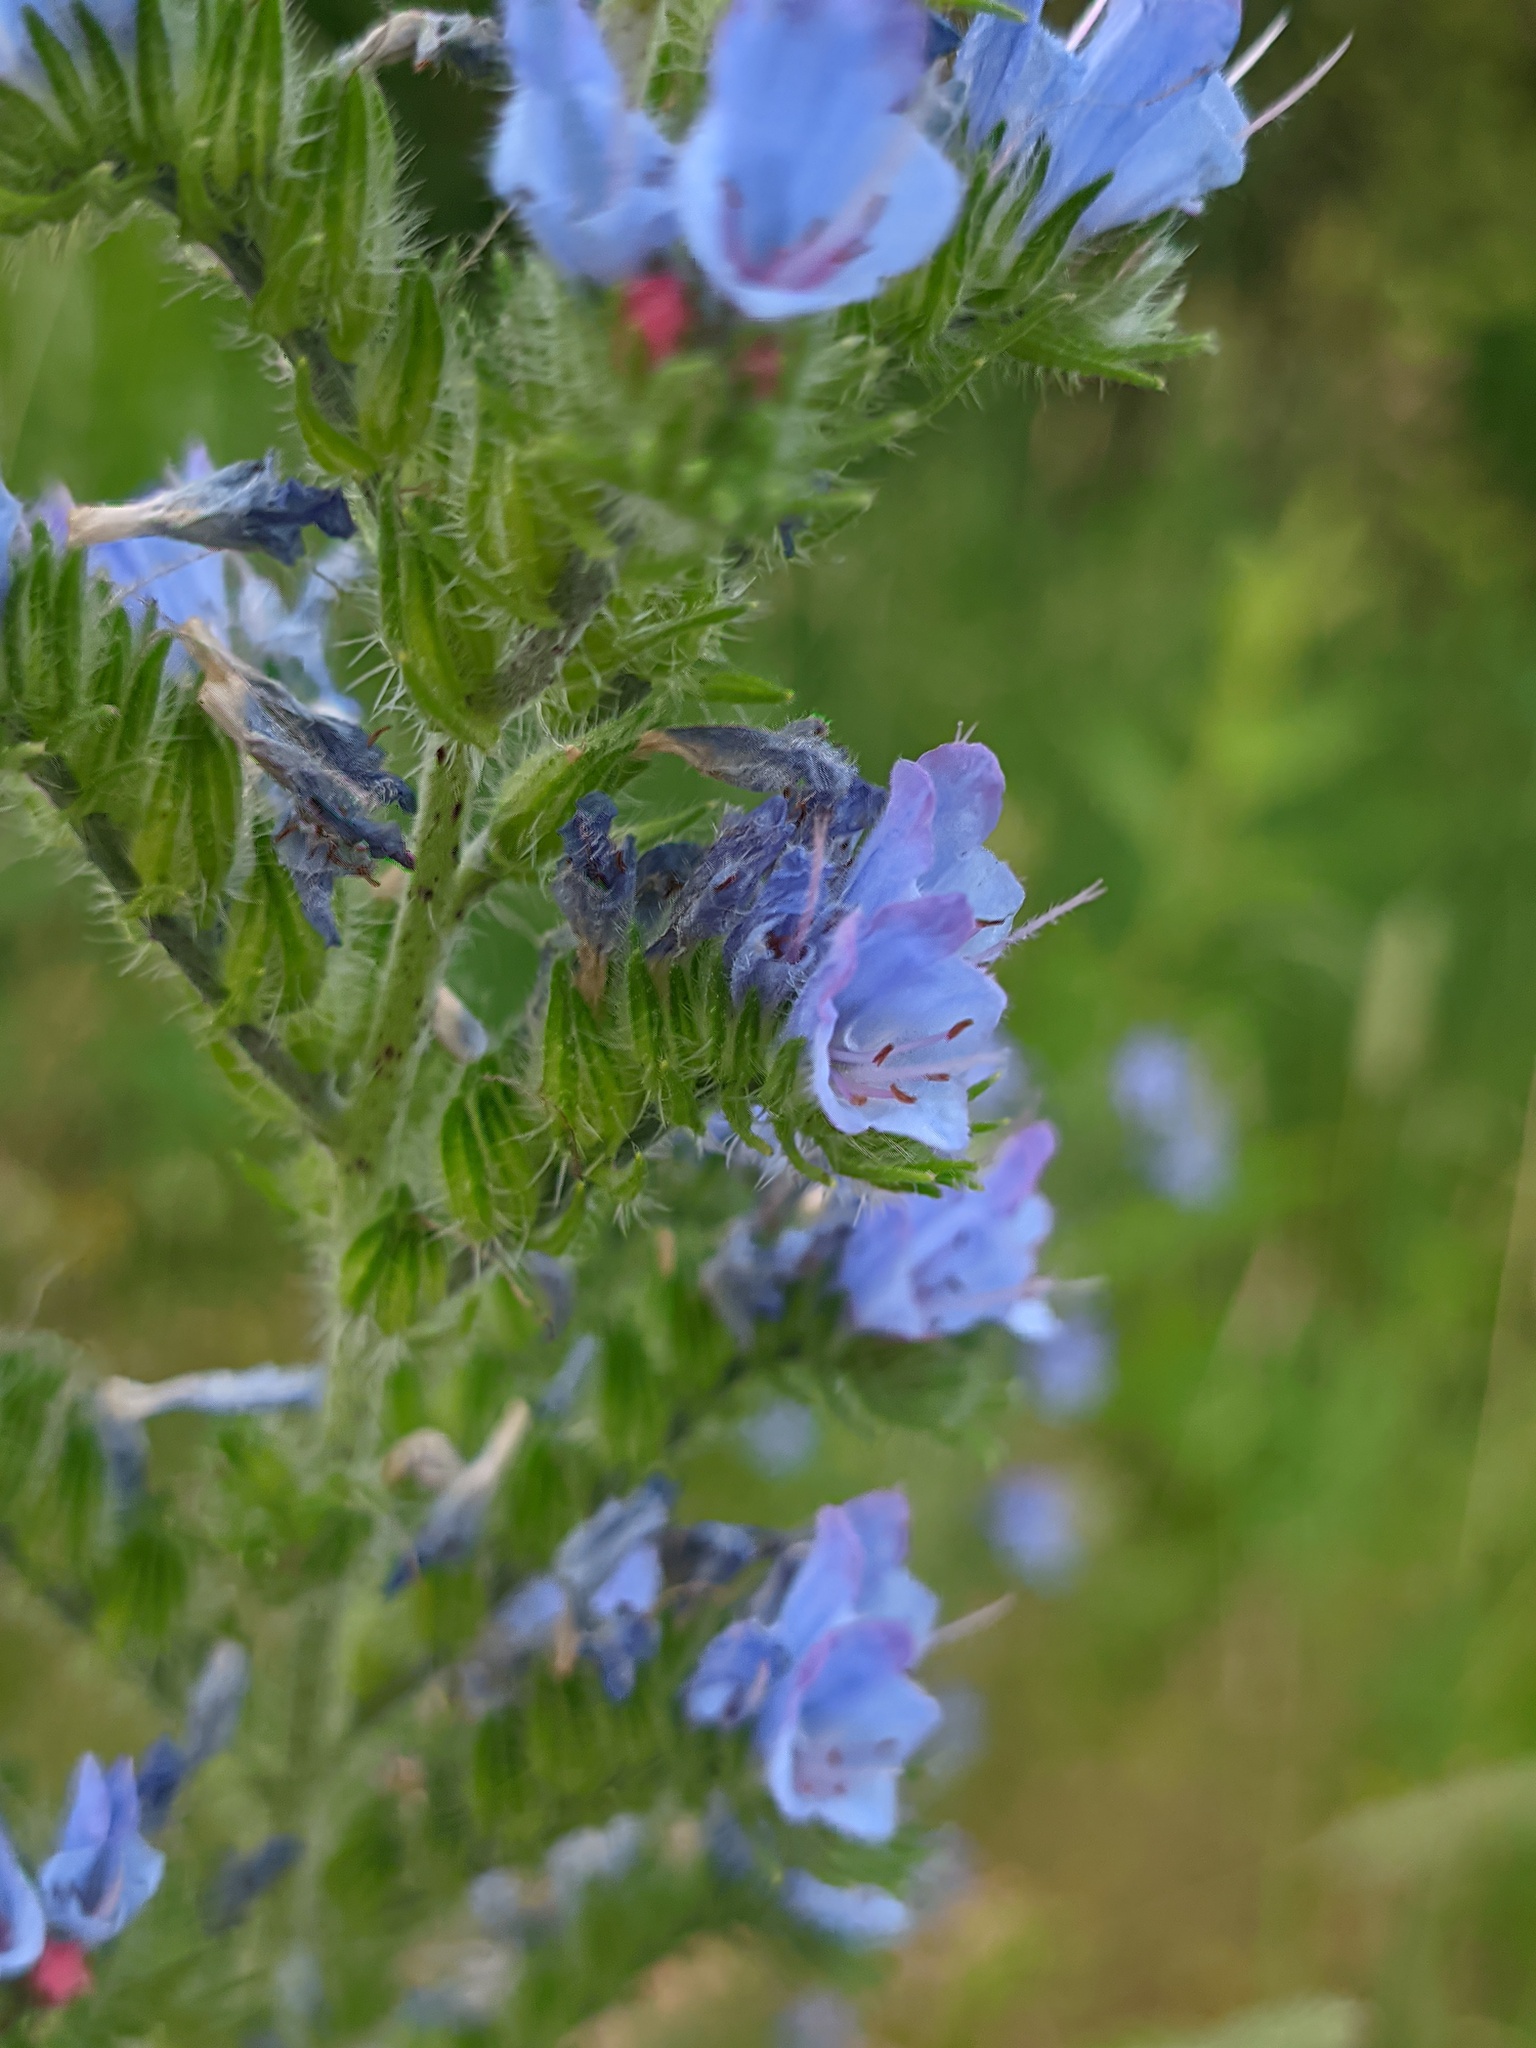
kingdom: Plantae
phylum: Tracheophyta
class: Magnoliopsida
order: Boraginales
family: Boraginaceae
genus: Echium
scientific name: Echium vulgare
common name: Common viper's bugloss
